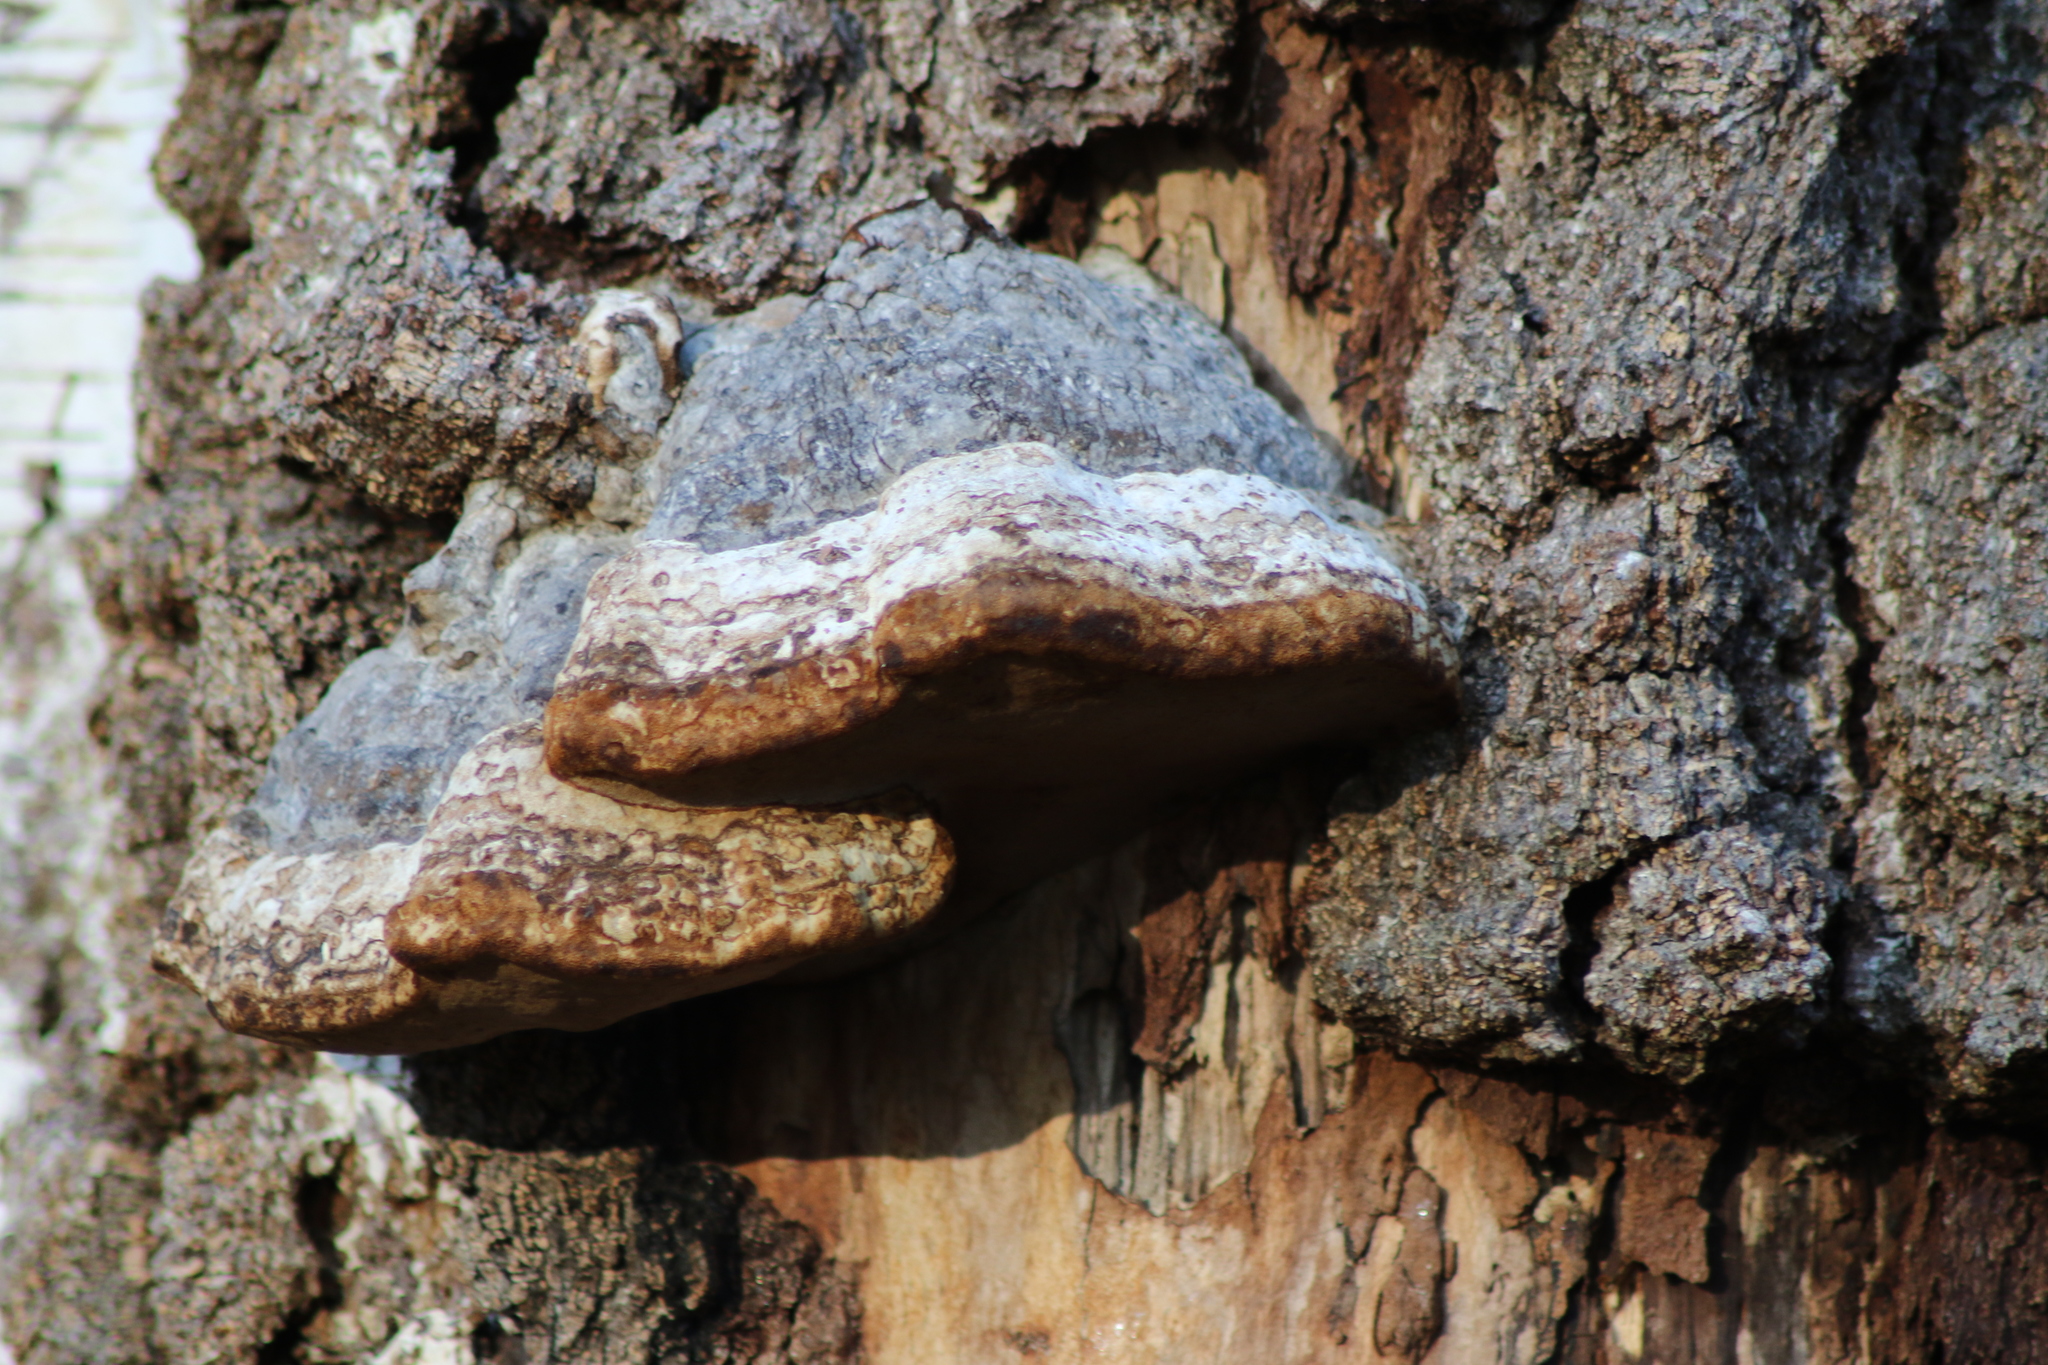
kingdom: Fungi
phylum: Basidiomycota
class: Agaricomycetes
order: Polyporales
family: Polyporaceae
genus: Fomes
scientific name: Fomes fomentarius
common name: Hoof fungus
